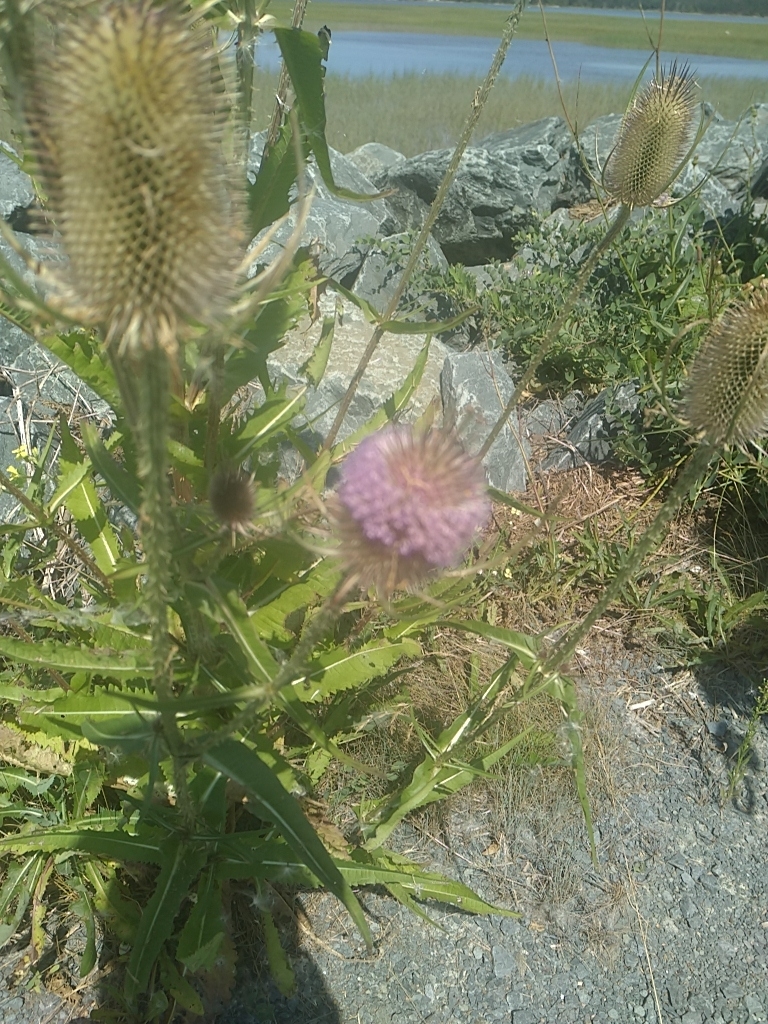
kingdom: Plantae
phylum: Tracheophyta
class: Magnoliopsida
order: Dipsacales
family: Caprifoliaceae
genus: Dipsacus
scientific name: Dipsacus fullonum
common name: Teasel
